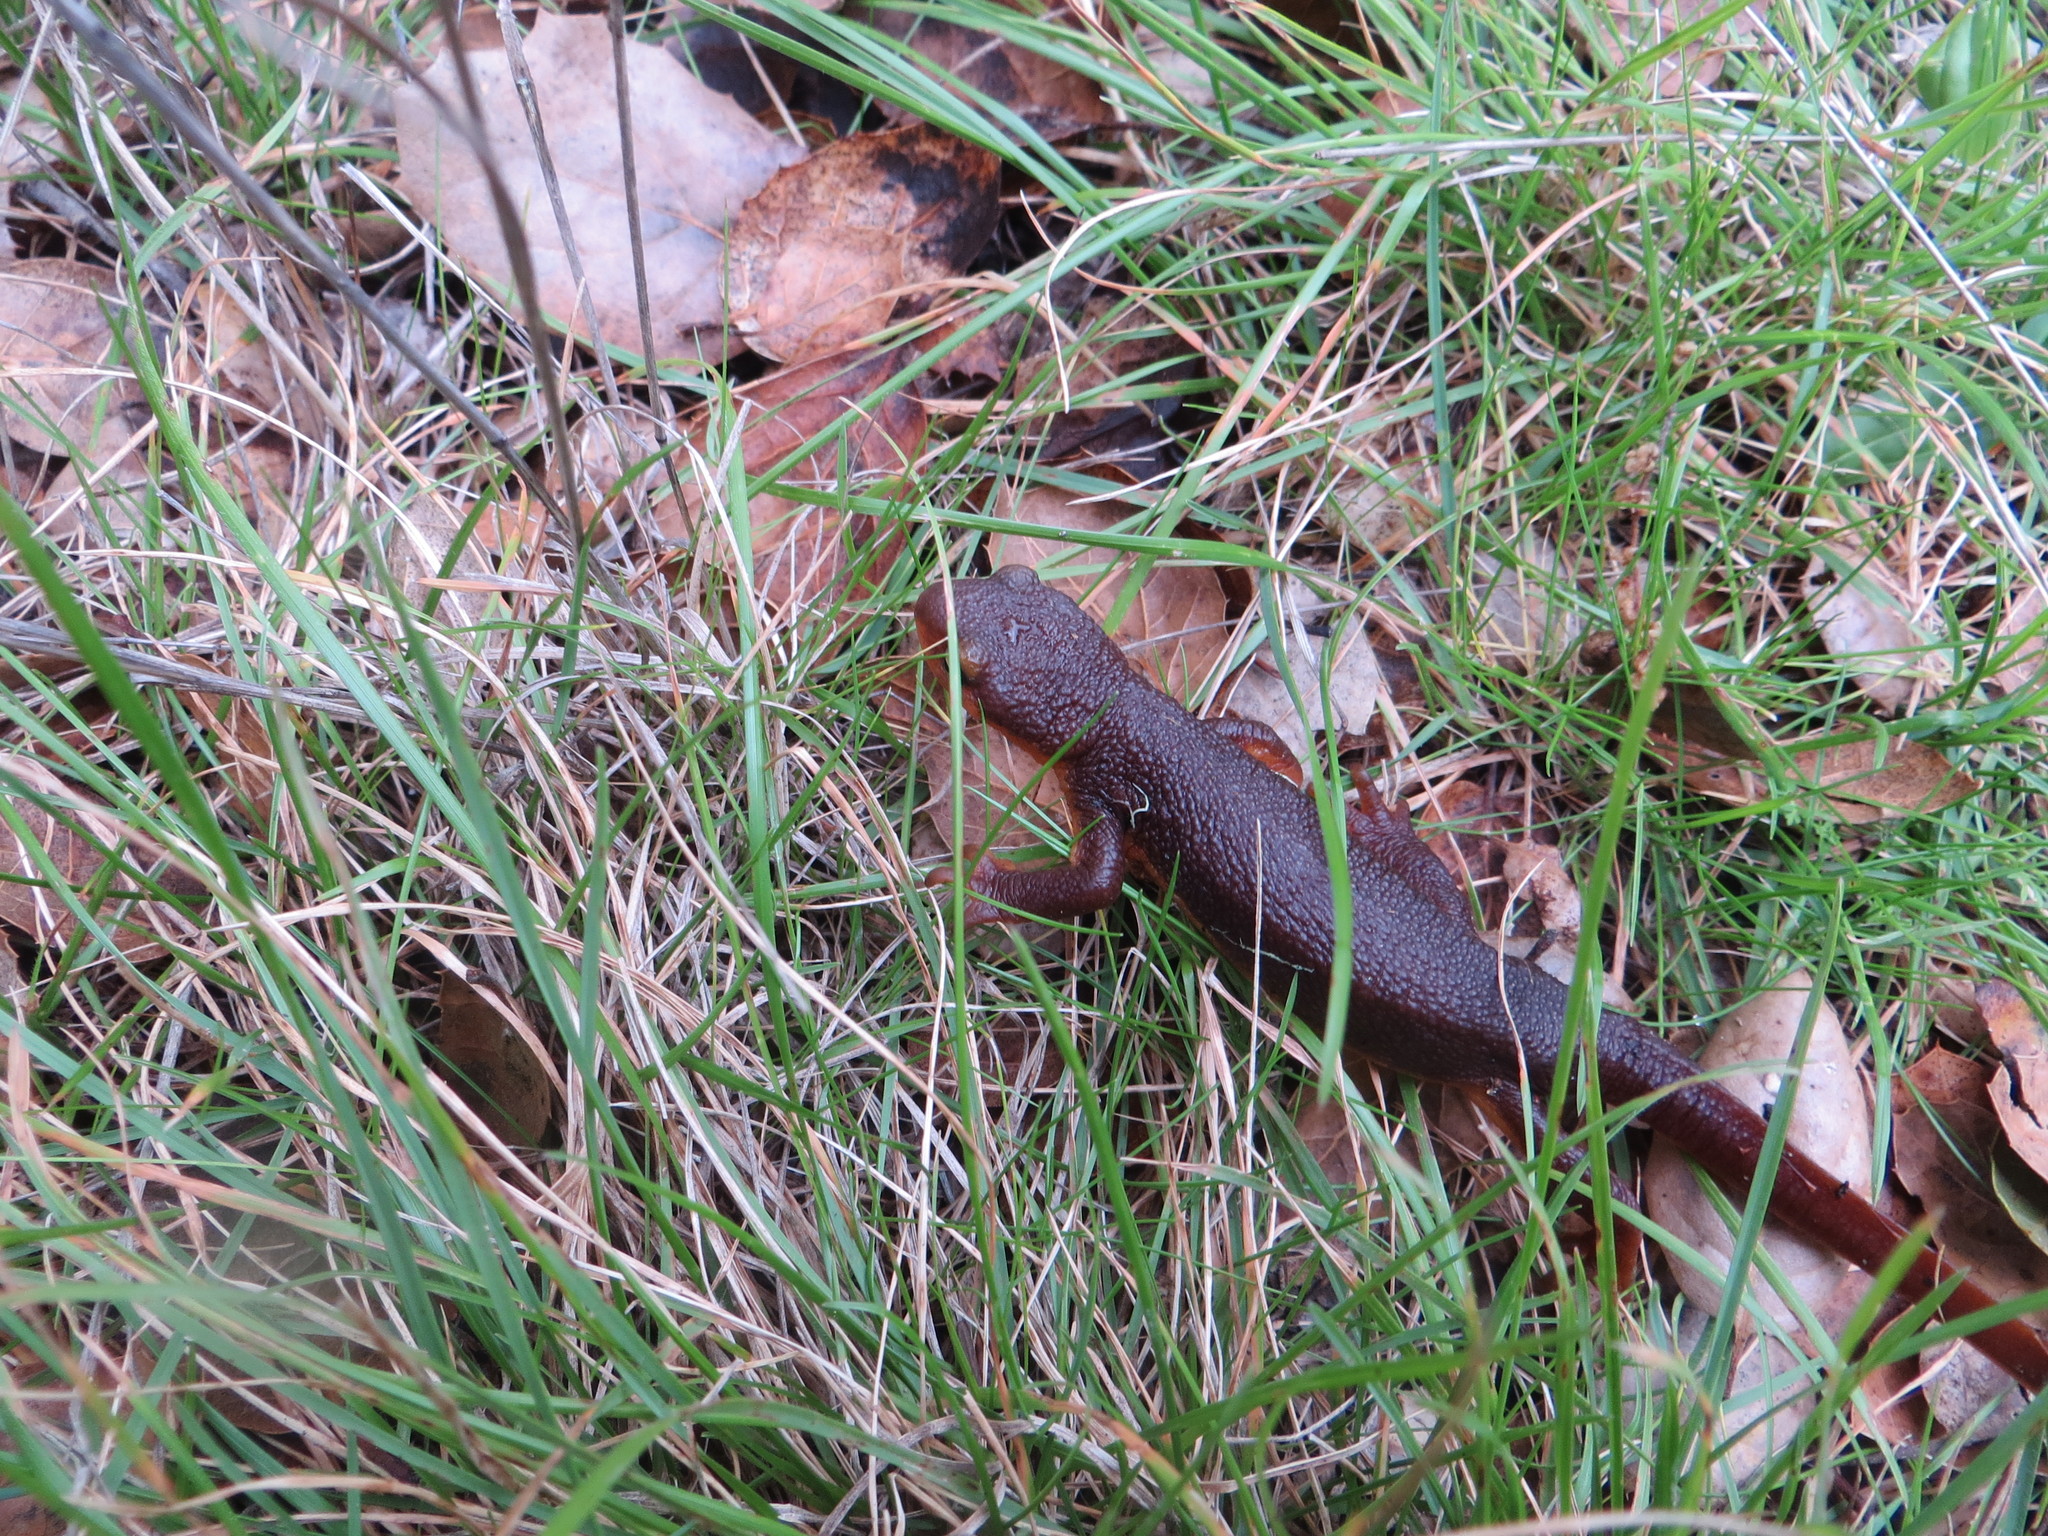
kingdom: Animalia
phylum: Chordata
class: Amphibia
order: Caudata
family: Salamandridae
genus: Taricha
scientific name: Taricha torosa
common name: California newt
